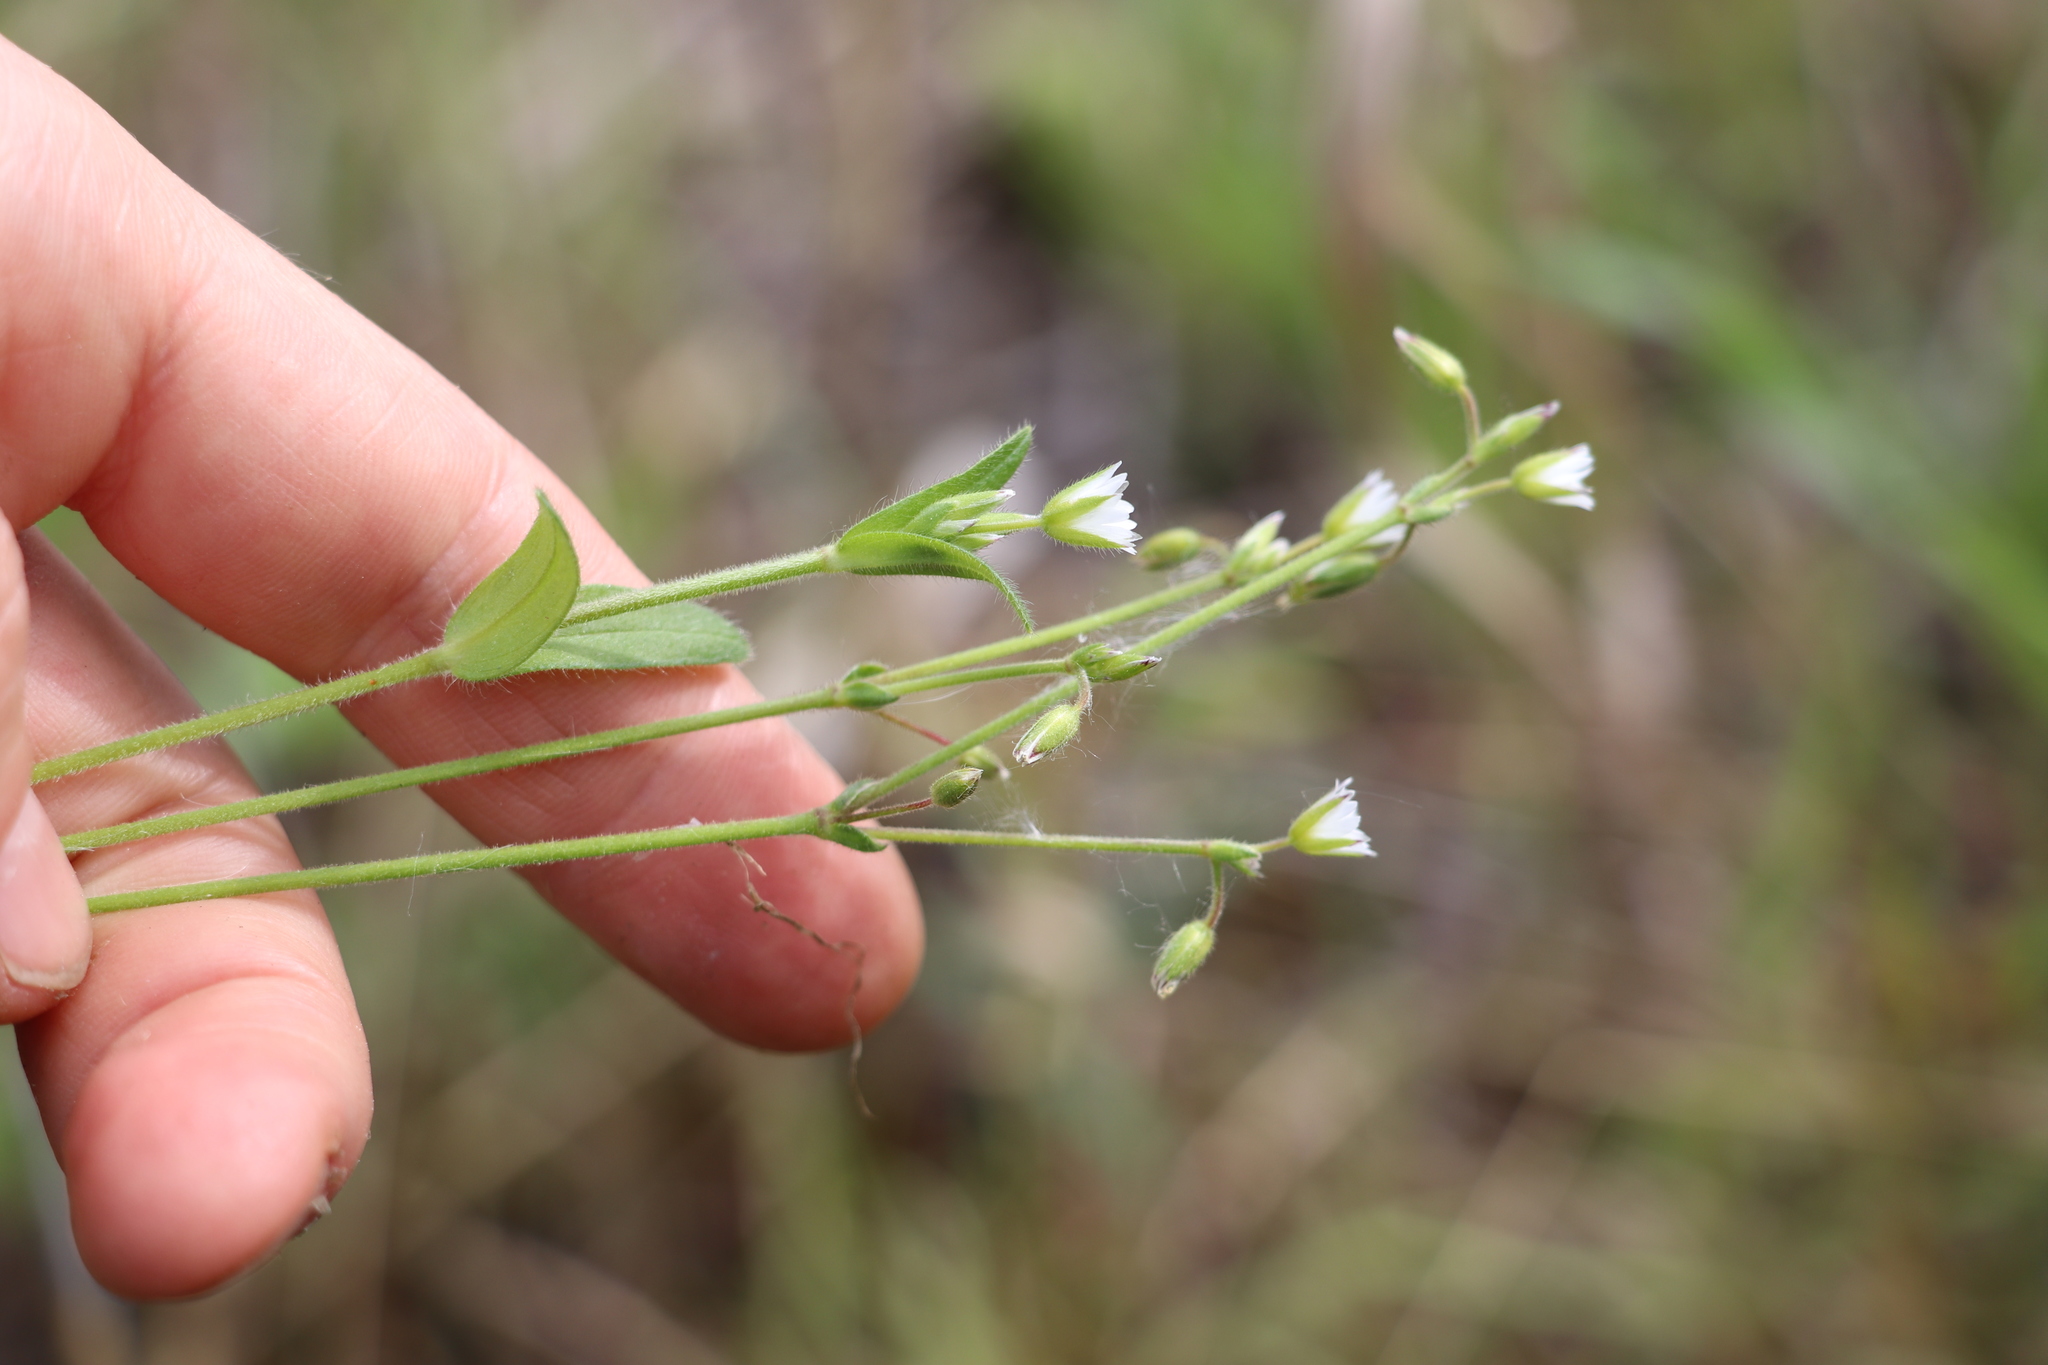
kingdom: Plantae
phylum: Tracheophyta
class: Magnoliopsida
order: Caryophyllales
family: Caryophyllaceae
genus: Cerastium
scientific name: Cerastium holosteoides
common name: Big chickweed
